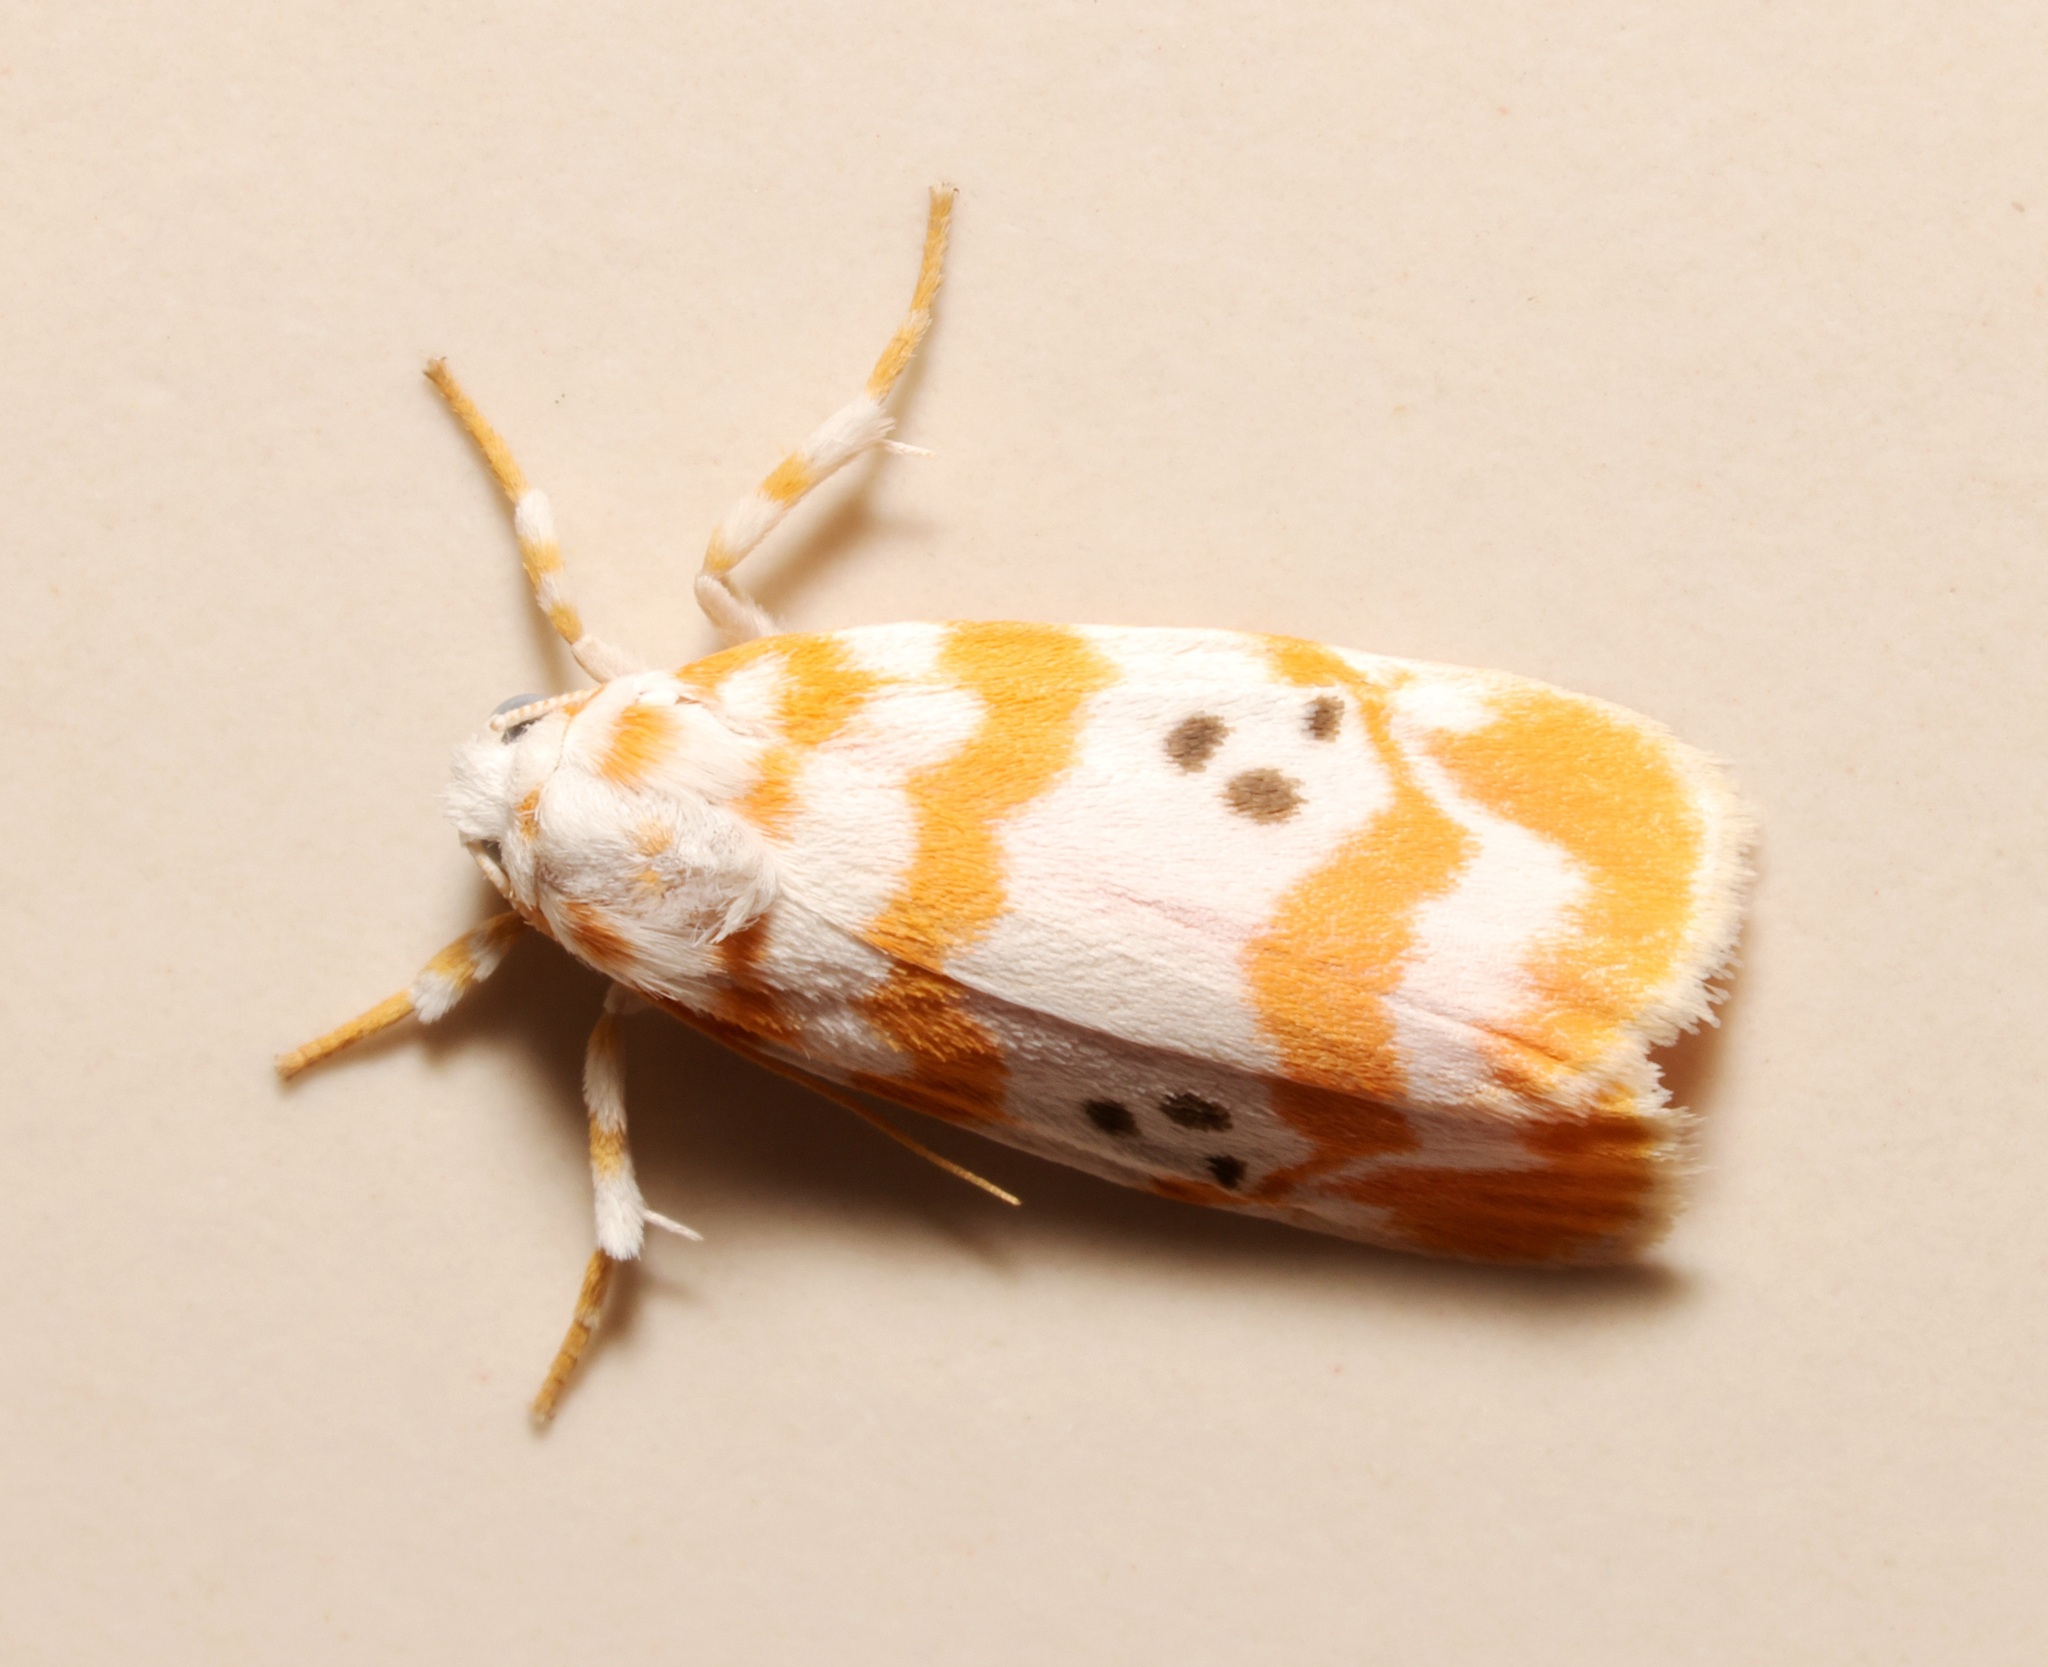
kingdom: Animalia
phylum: Arthropoda
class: Insecta
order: Lepidoptera
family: Erebidae
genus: Cyana
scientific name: Cyana interrogationis
